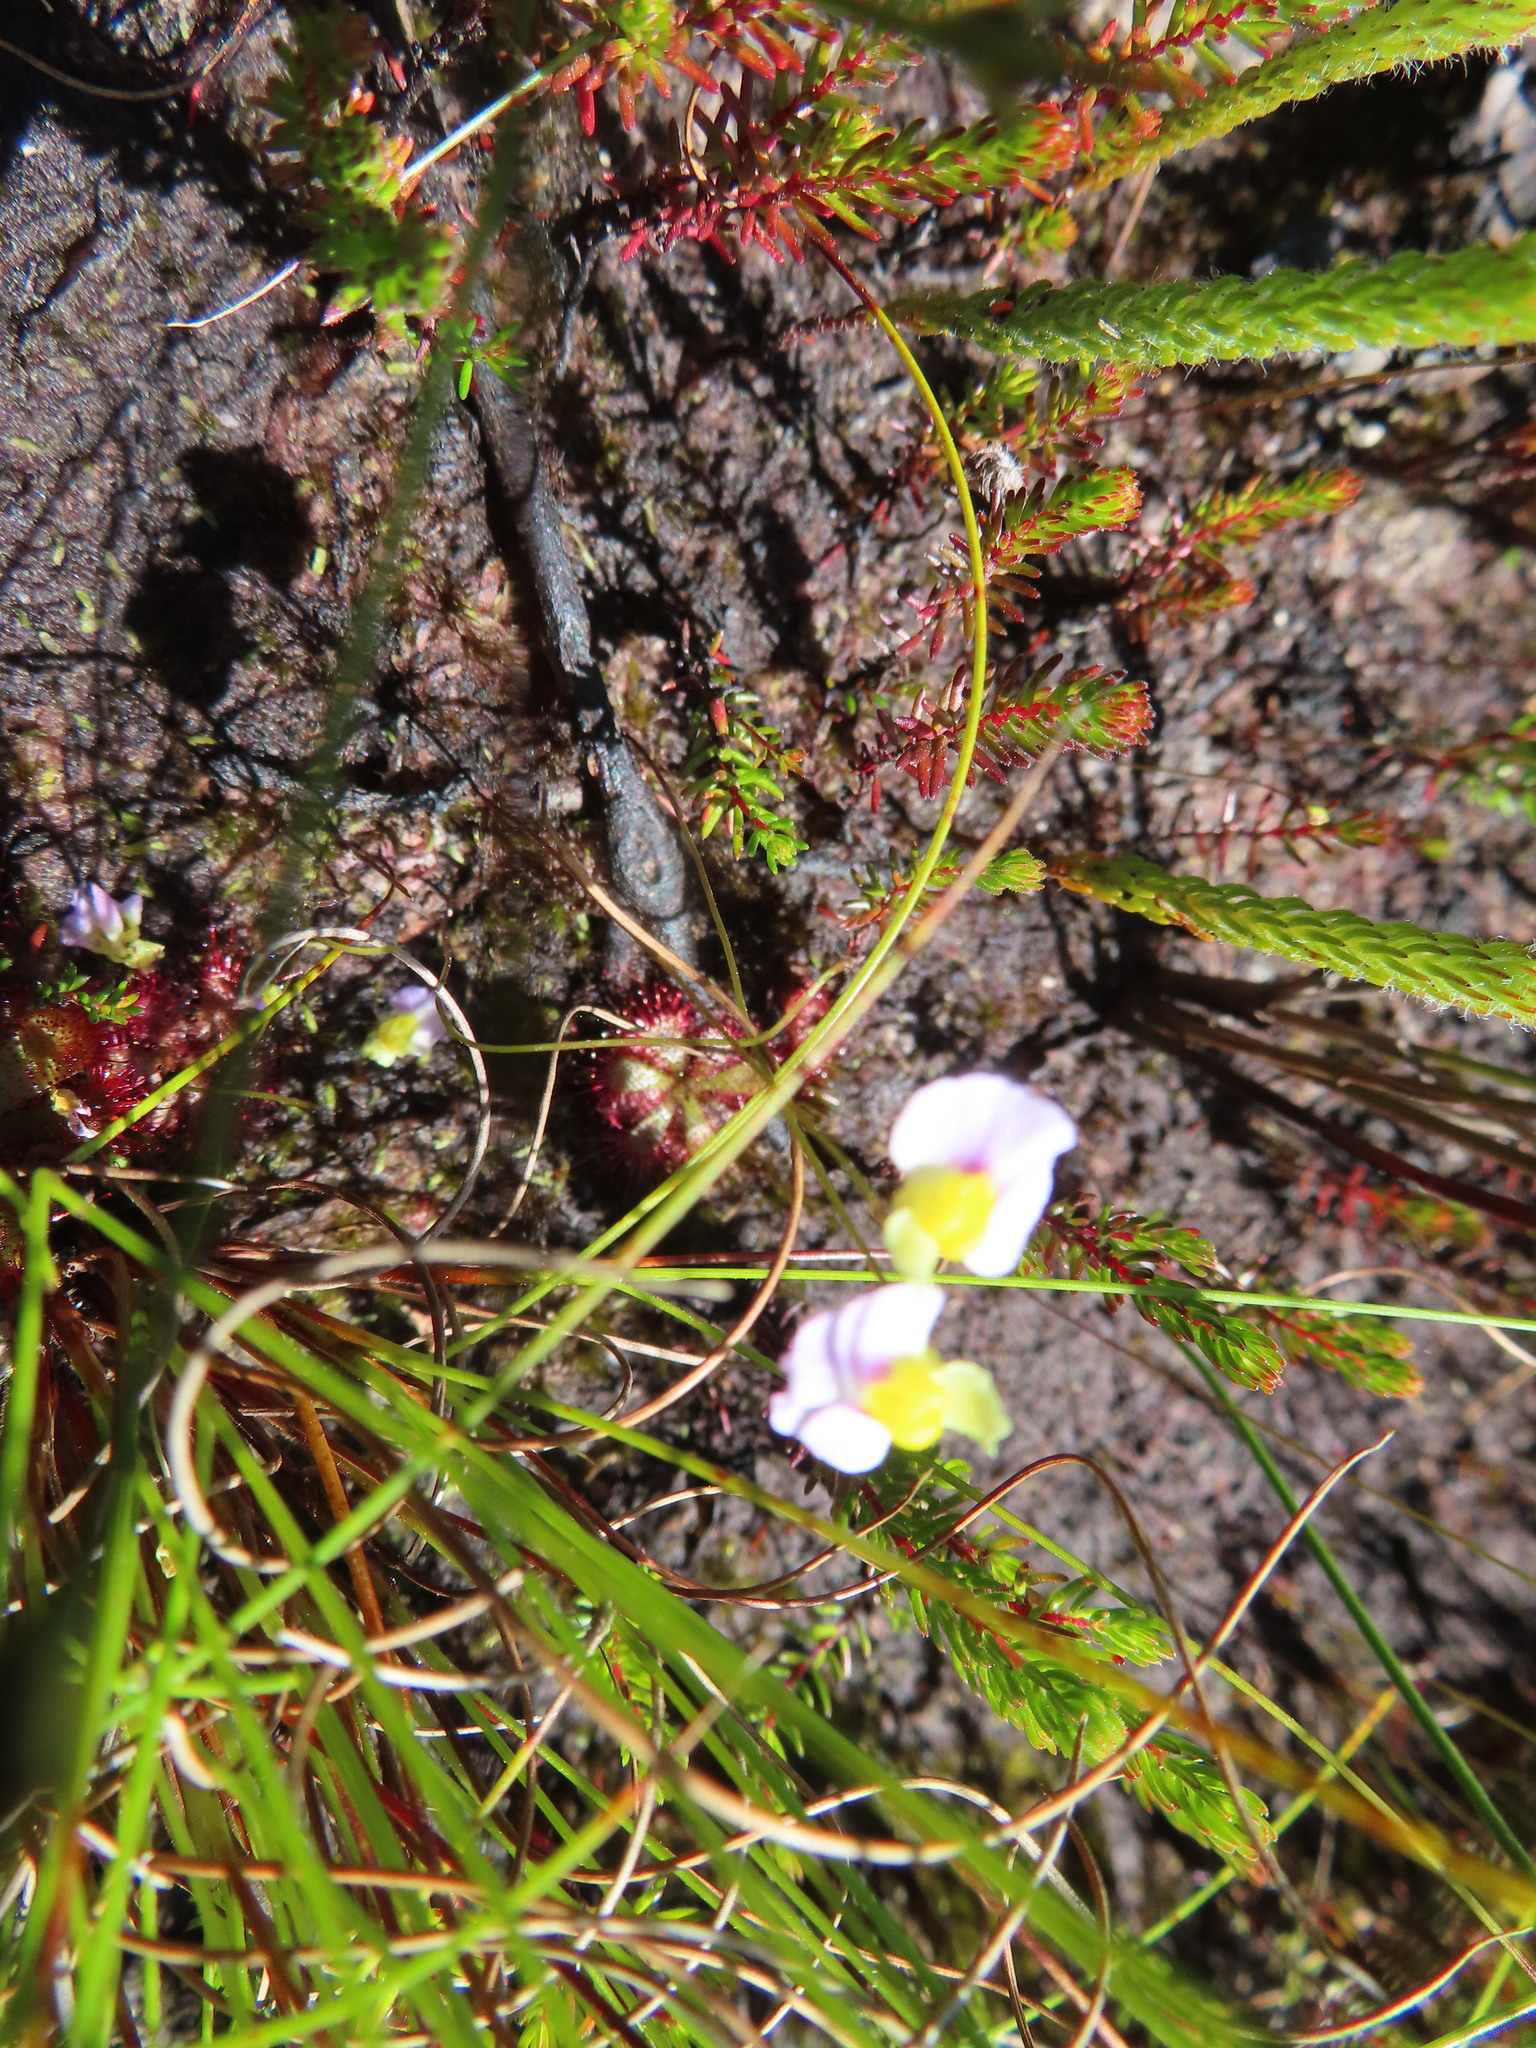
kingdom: Plantae
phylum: Tracheophyta
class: Magnoliopsida
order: Lamiales
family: Lentibulariaceae
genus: Utricularia
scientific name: Utricularia bisquamata
